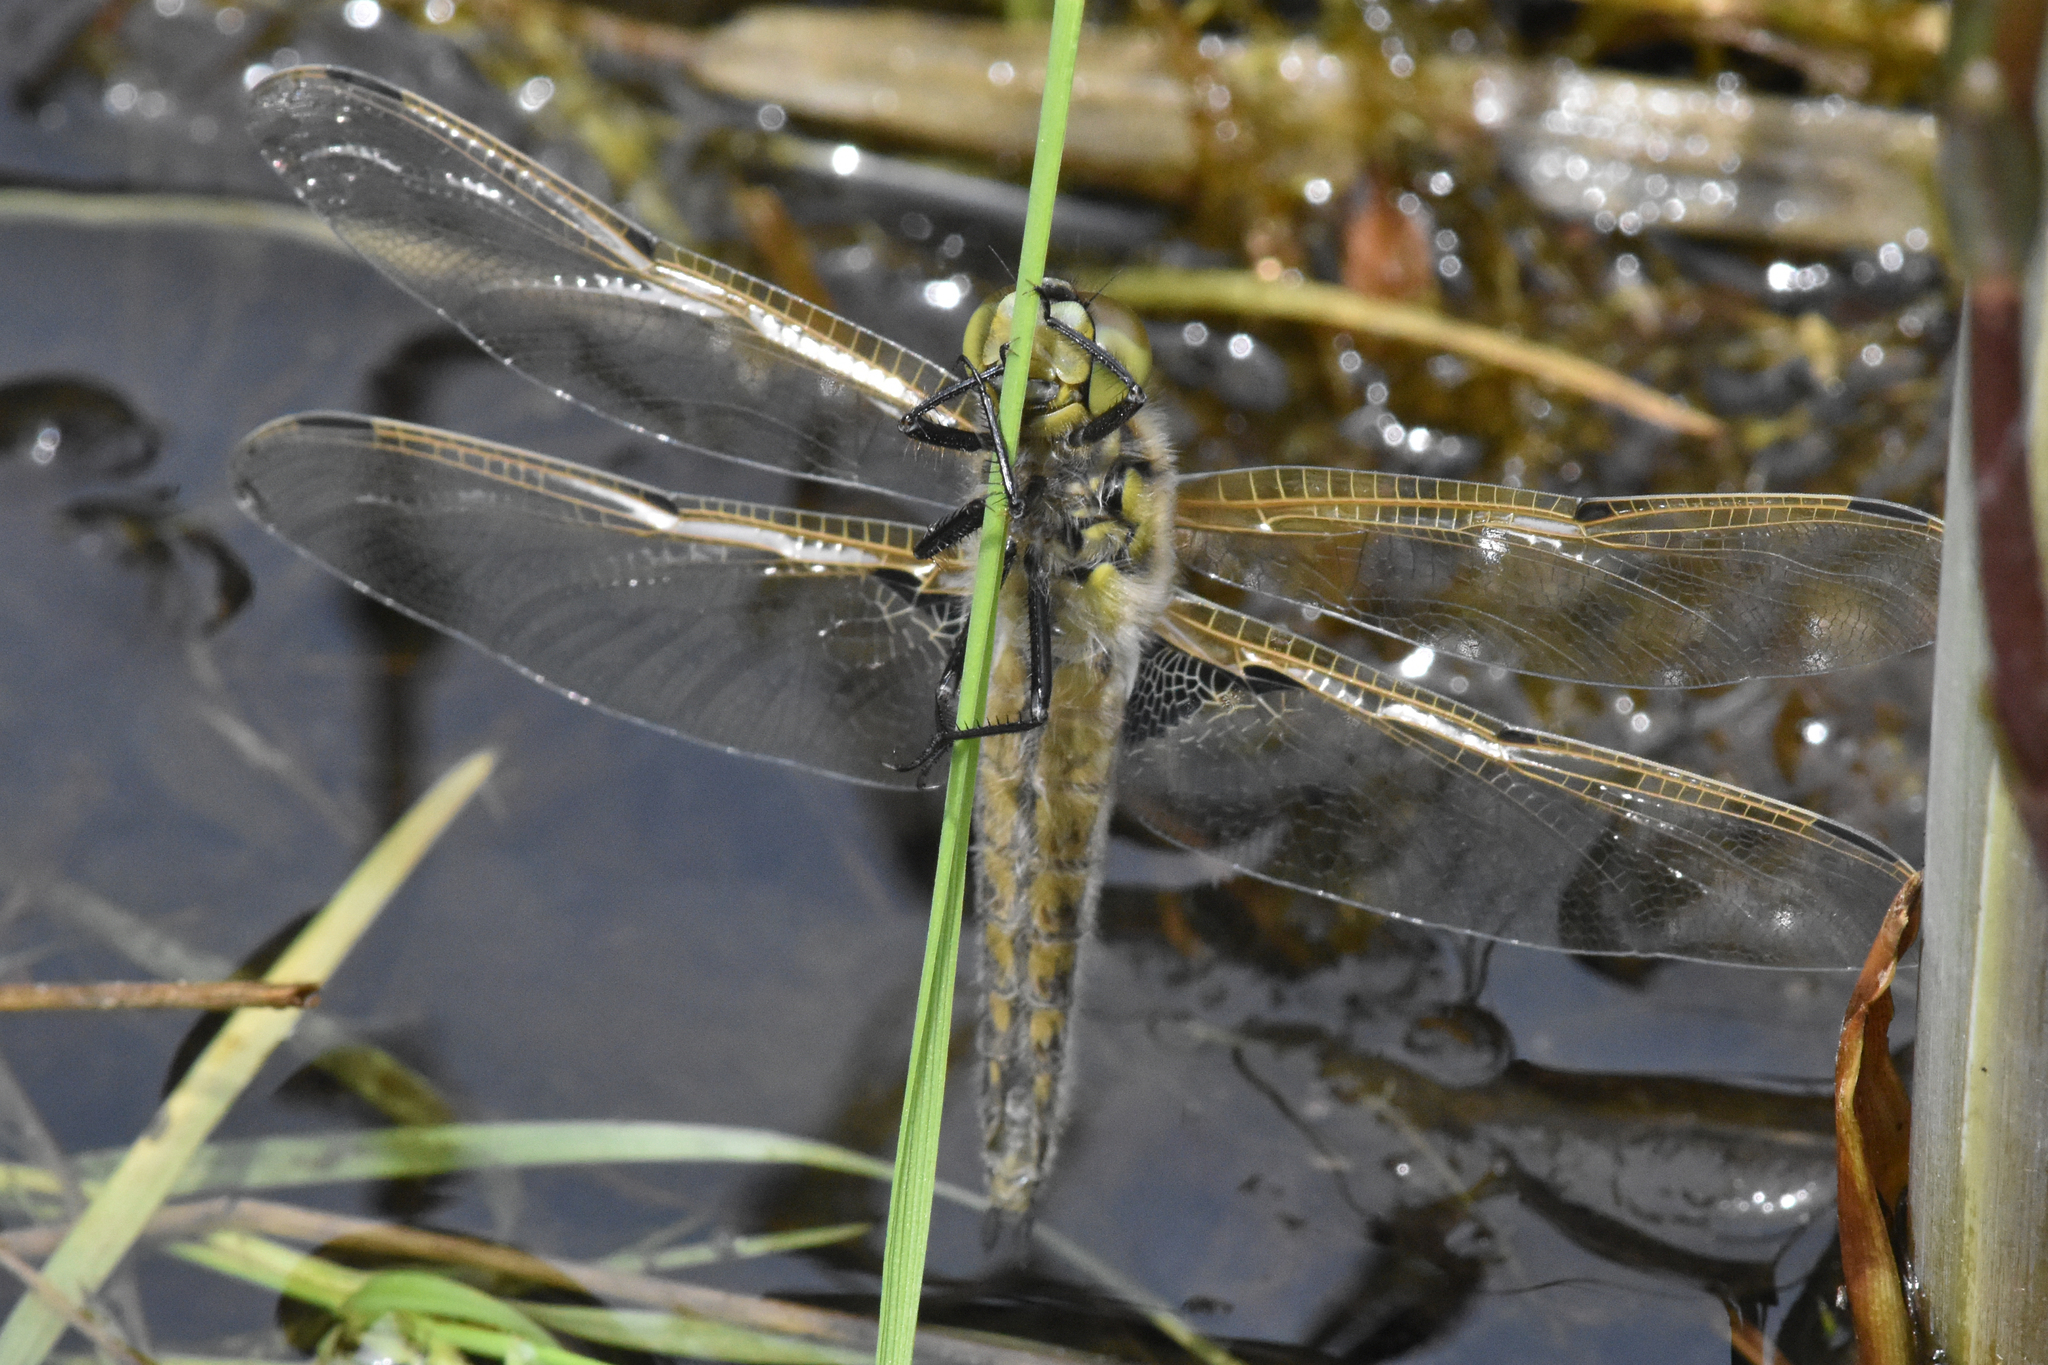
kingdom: Animalia
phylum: Arthropoda
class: Insecta
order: Odonata
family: Libellulidae
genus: Libellula
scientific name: Libellula quadrimaculata
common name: Four-spotted chaser
